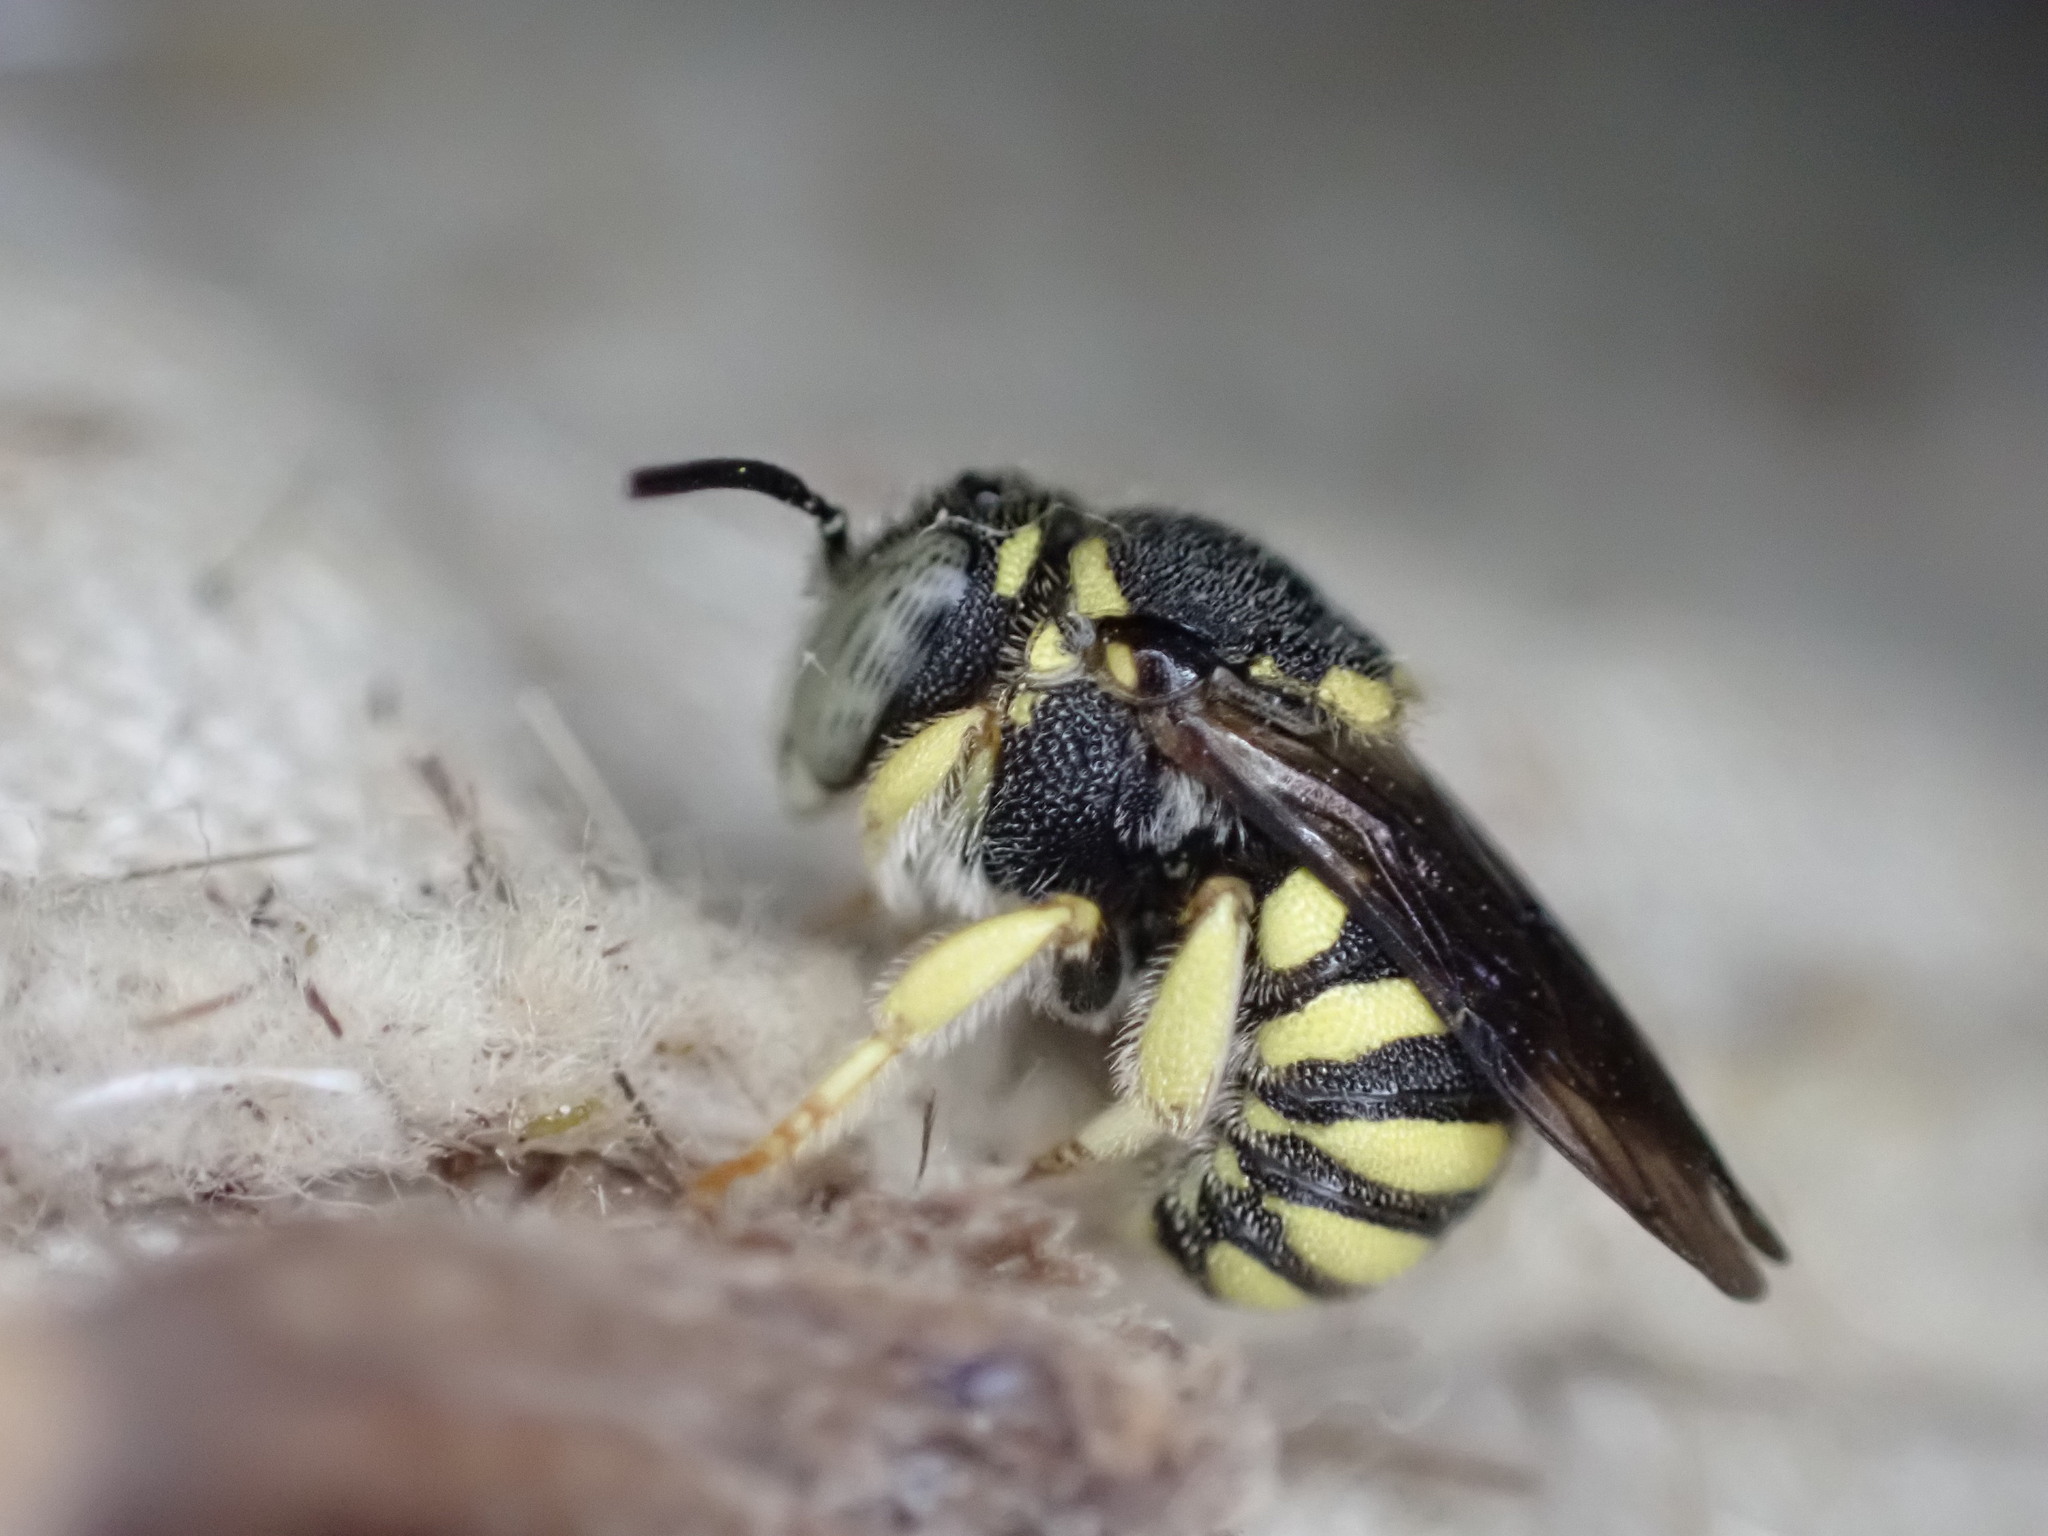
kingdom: Animalia
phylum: Arthropoda
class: Insecta
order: Hymenoptera
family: Megachilidae
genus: Anthidiellum
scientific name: Anthidiellum strigatum
